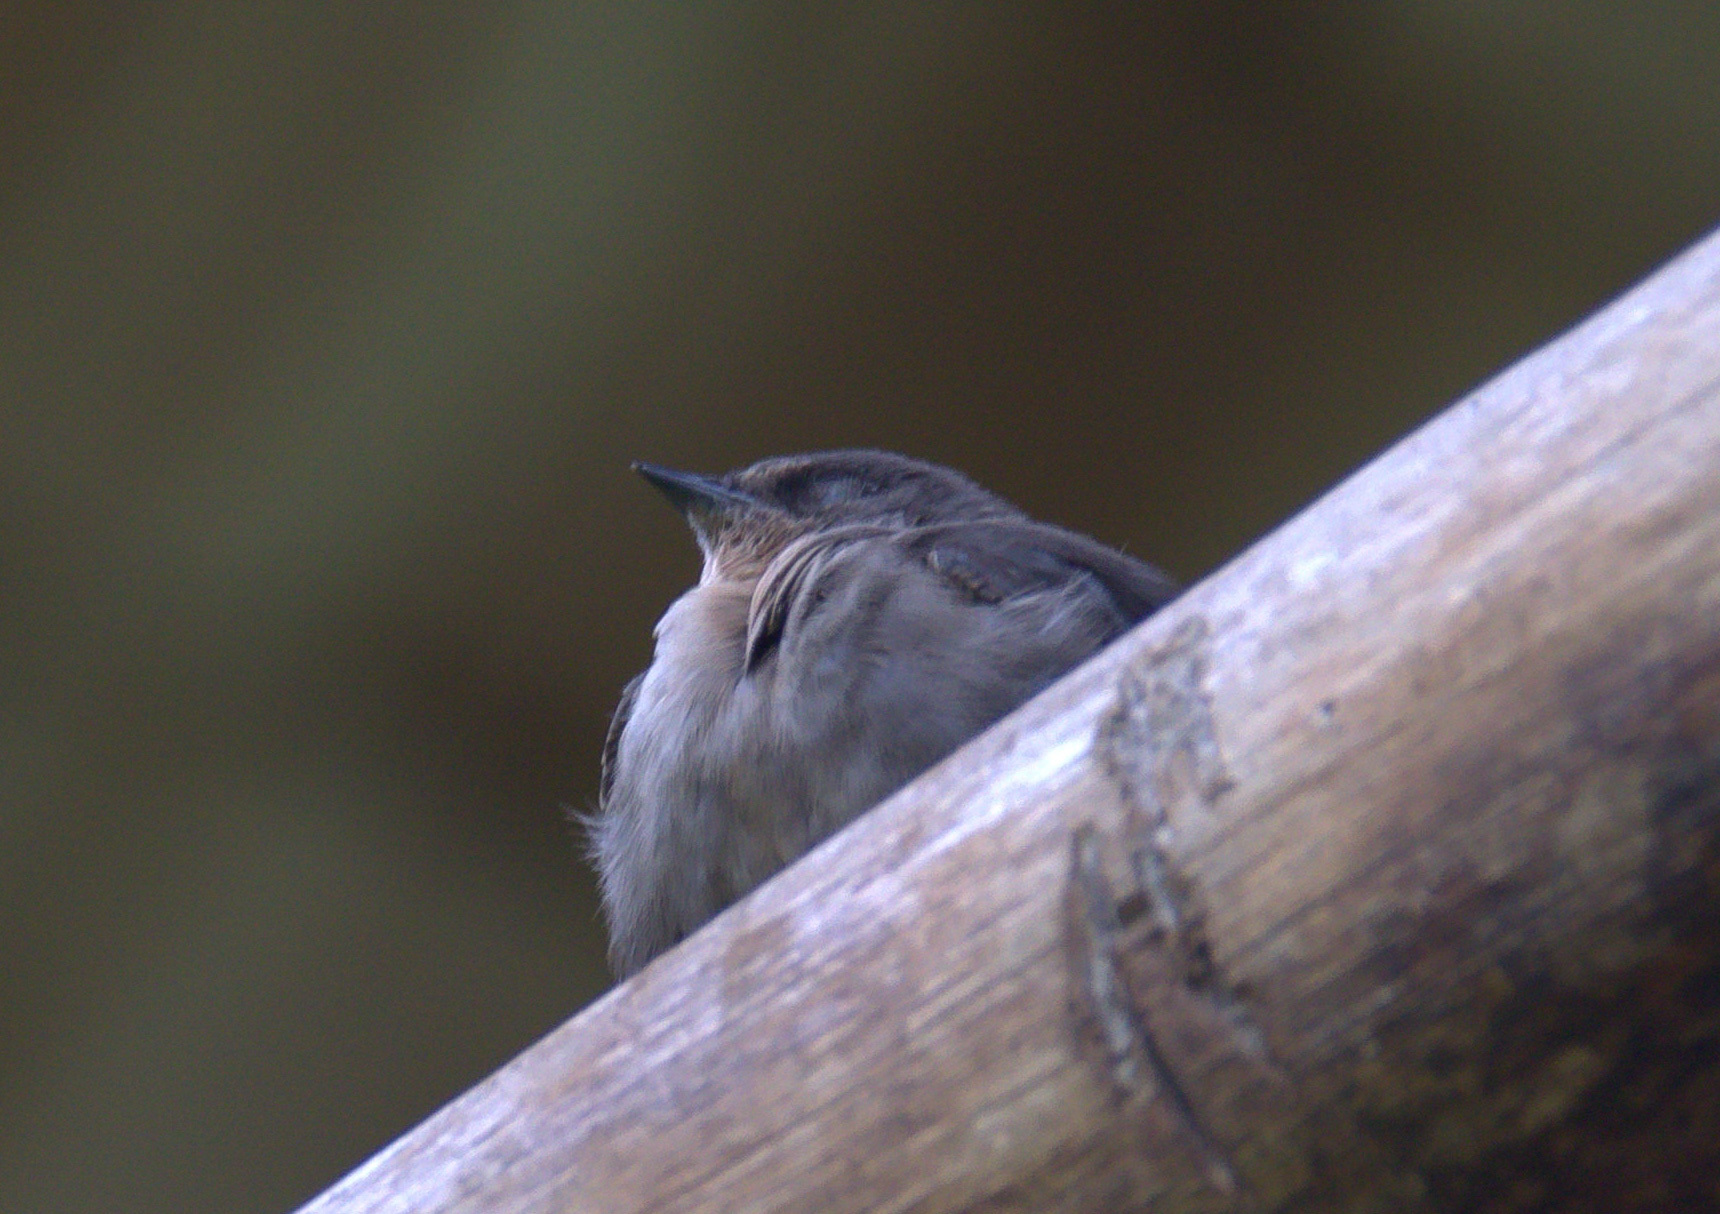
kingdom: Animalia
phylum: Chordata
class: Aves
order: Passeriformes
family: Hirundinidae
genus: Ptyonoprogne
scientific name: Ptyonoprogne fuligula
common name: Rock martin
